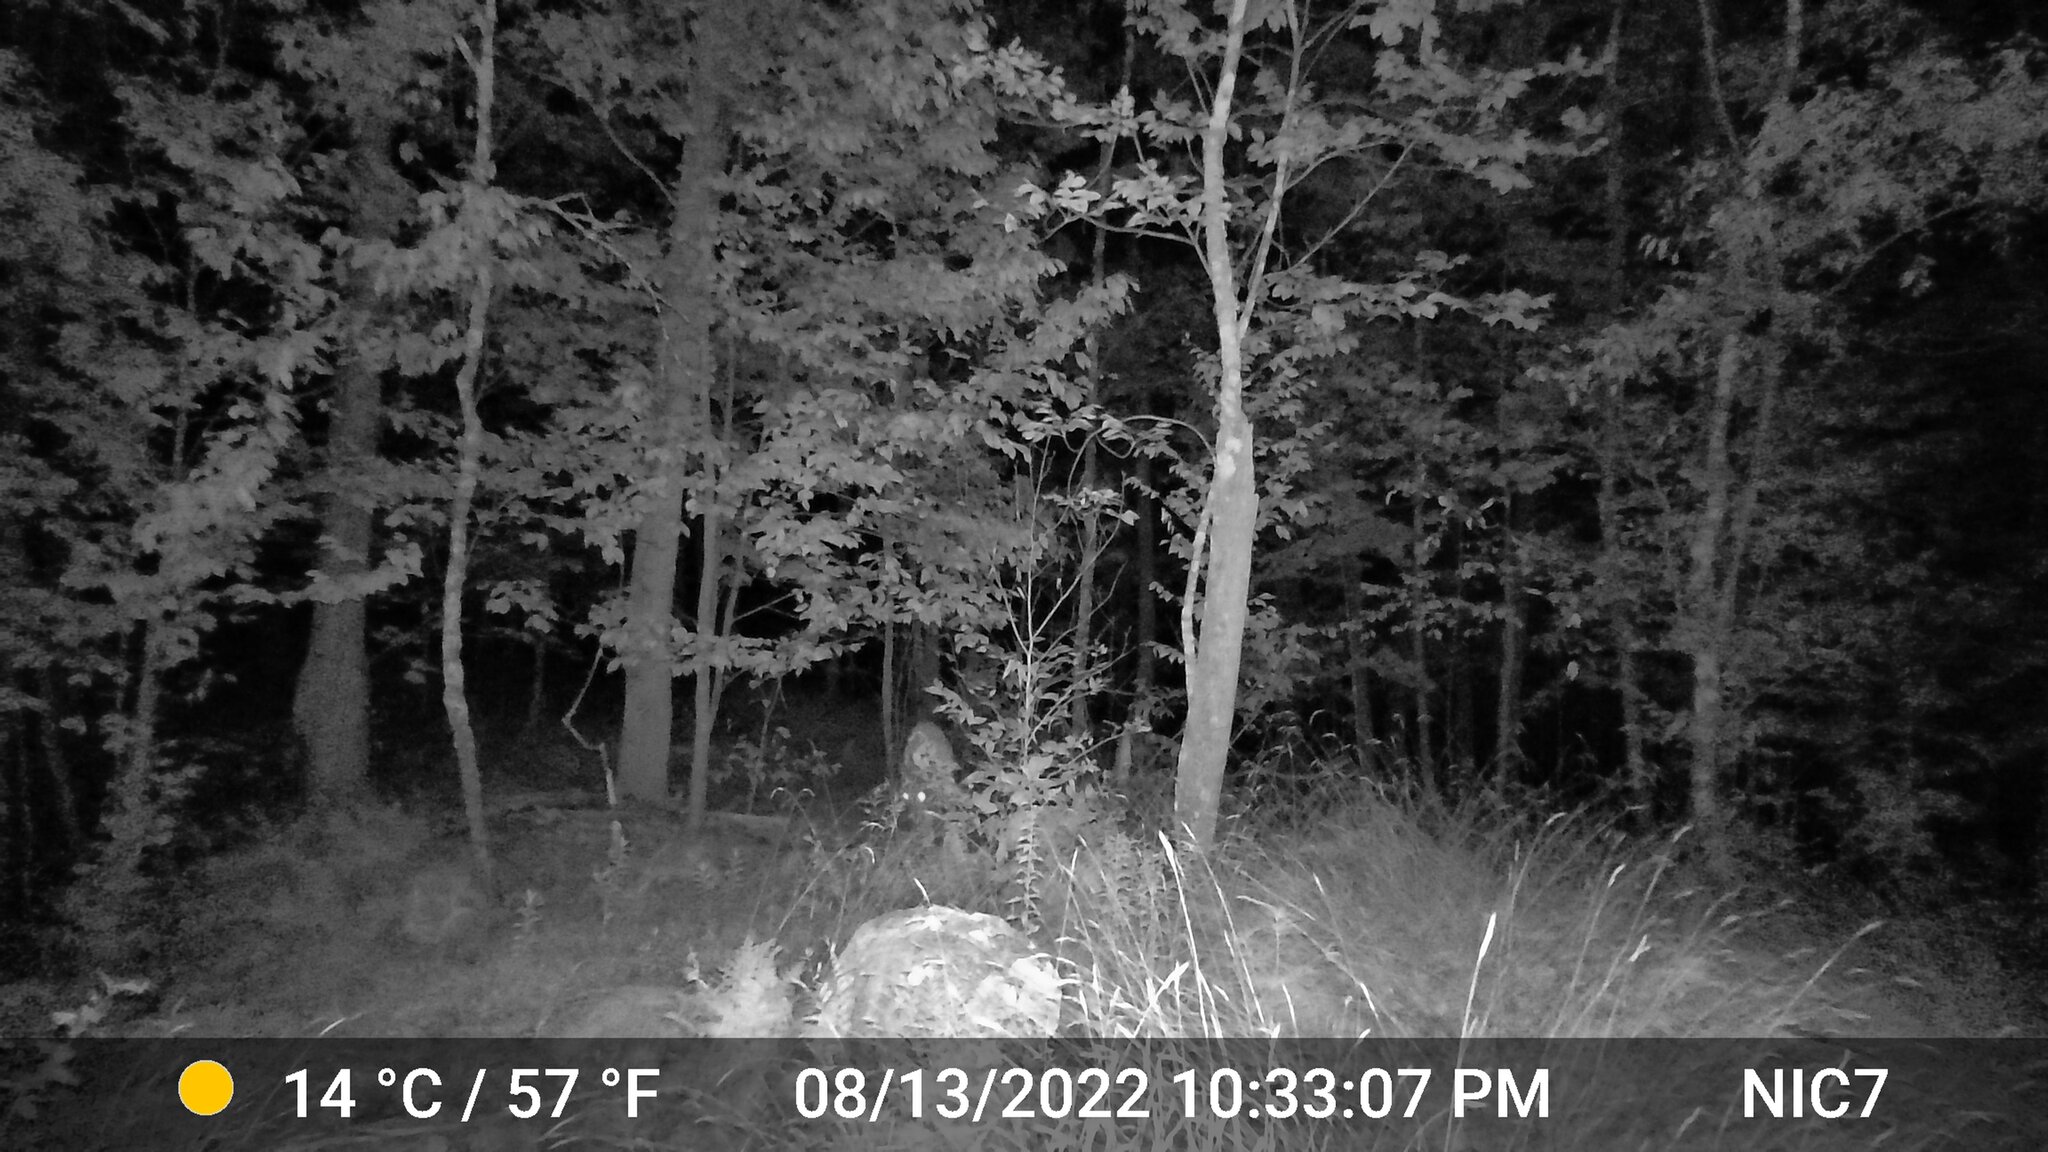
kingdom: Animalia
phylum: Chordata
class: Mammalia
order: Artiodactyla
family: Cervidae
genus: Odocoileus
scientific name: Odocoileus virginianus
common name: White-tailed deer
